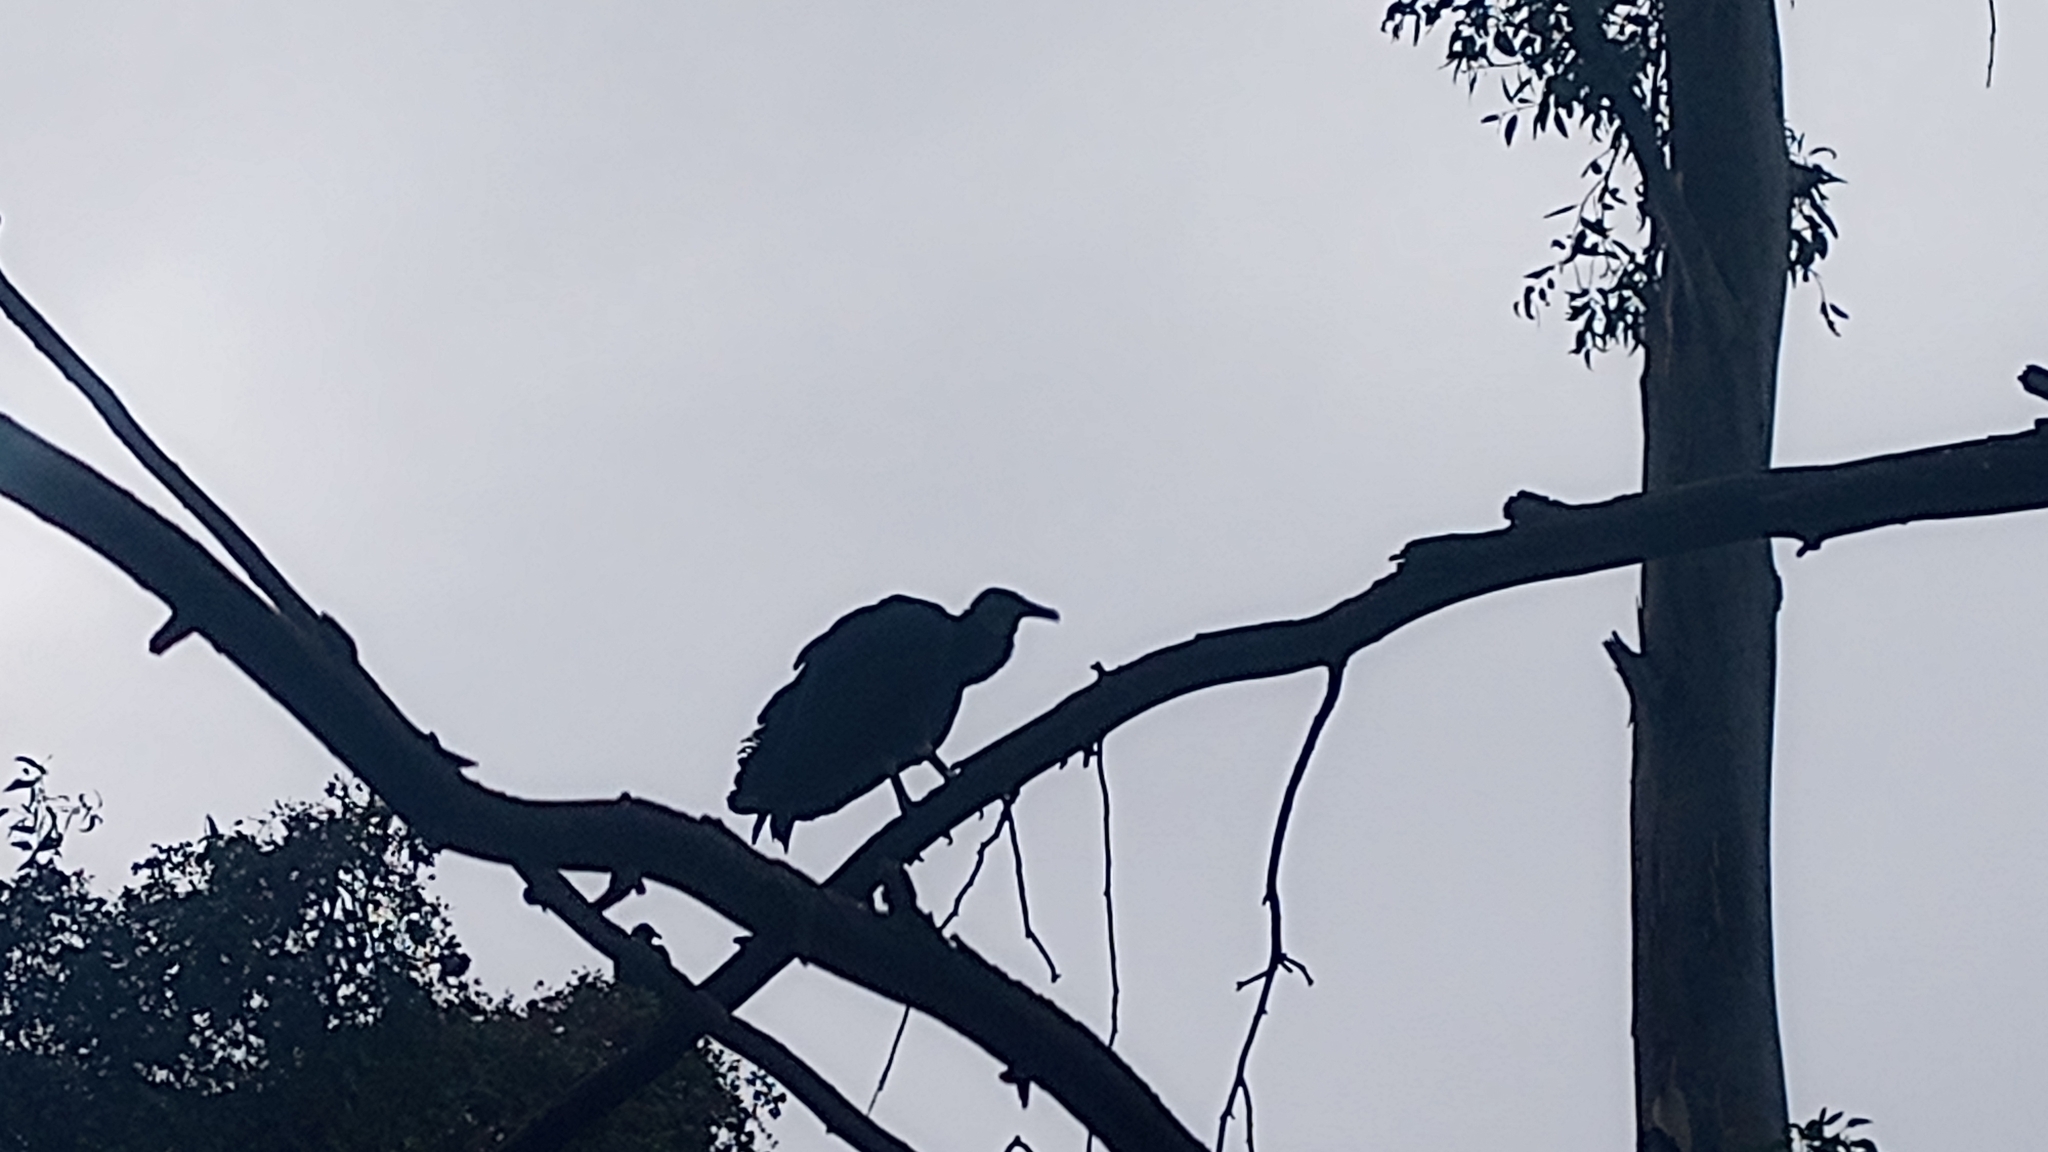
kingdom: Animalia
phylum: Chordata
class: Aves
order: Accipitriformes
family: Cathartidae
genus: Coragyps
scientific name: Coragyps atratus
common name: Black vulture
